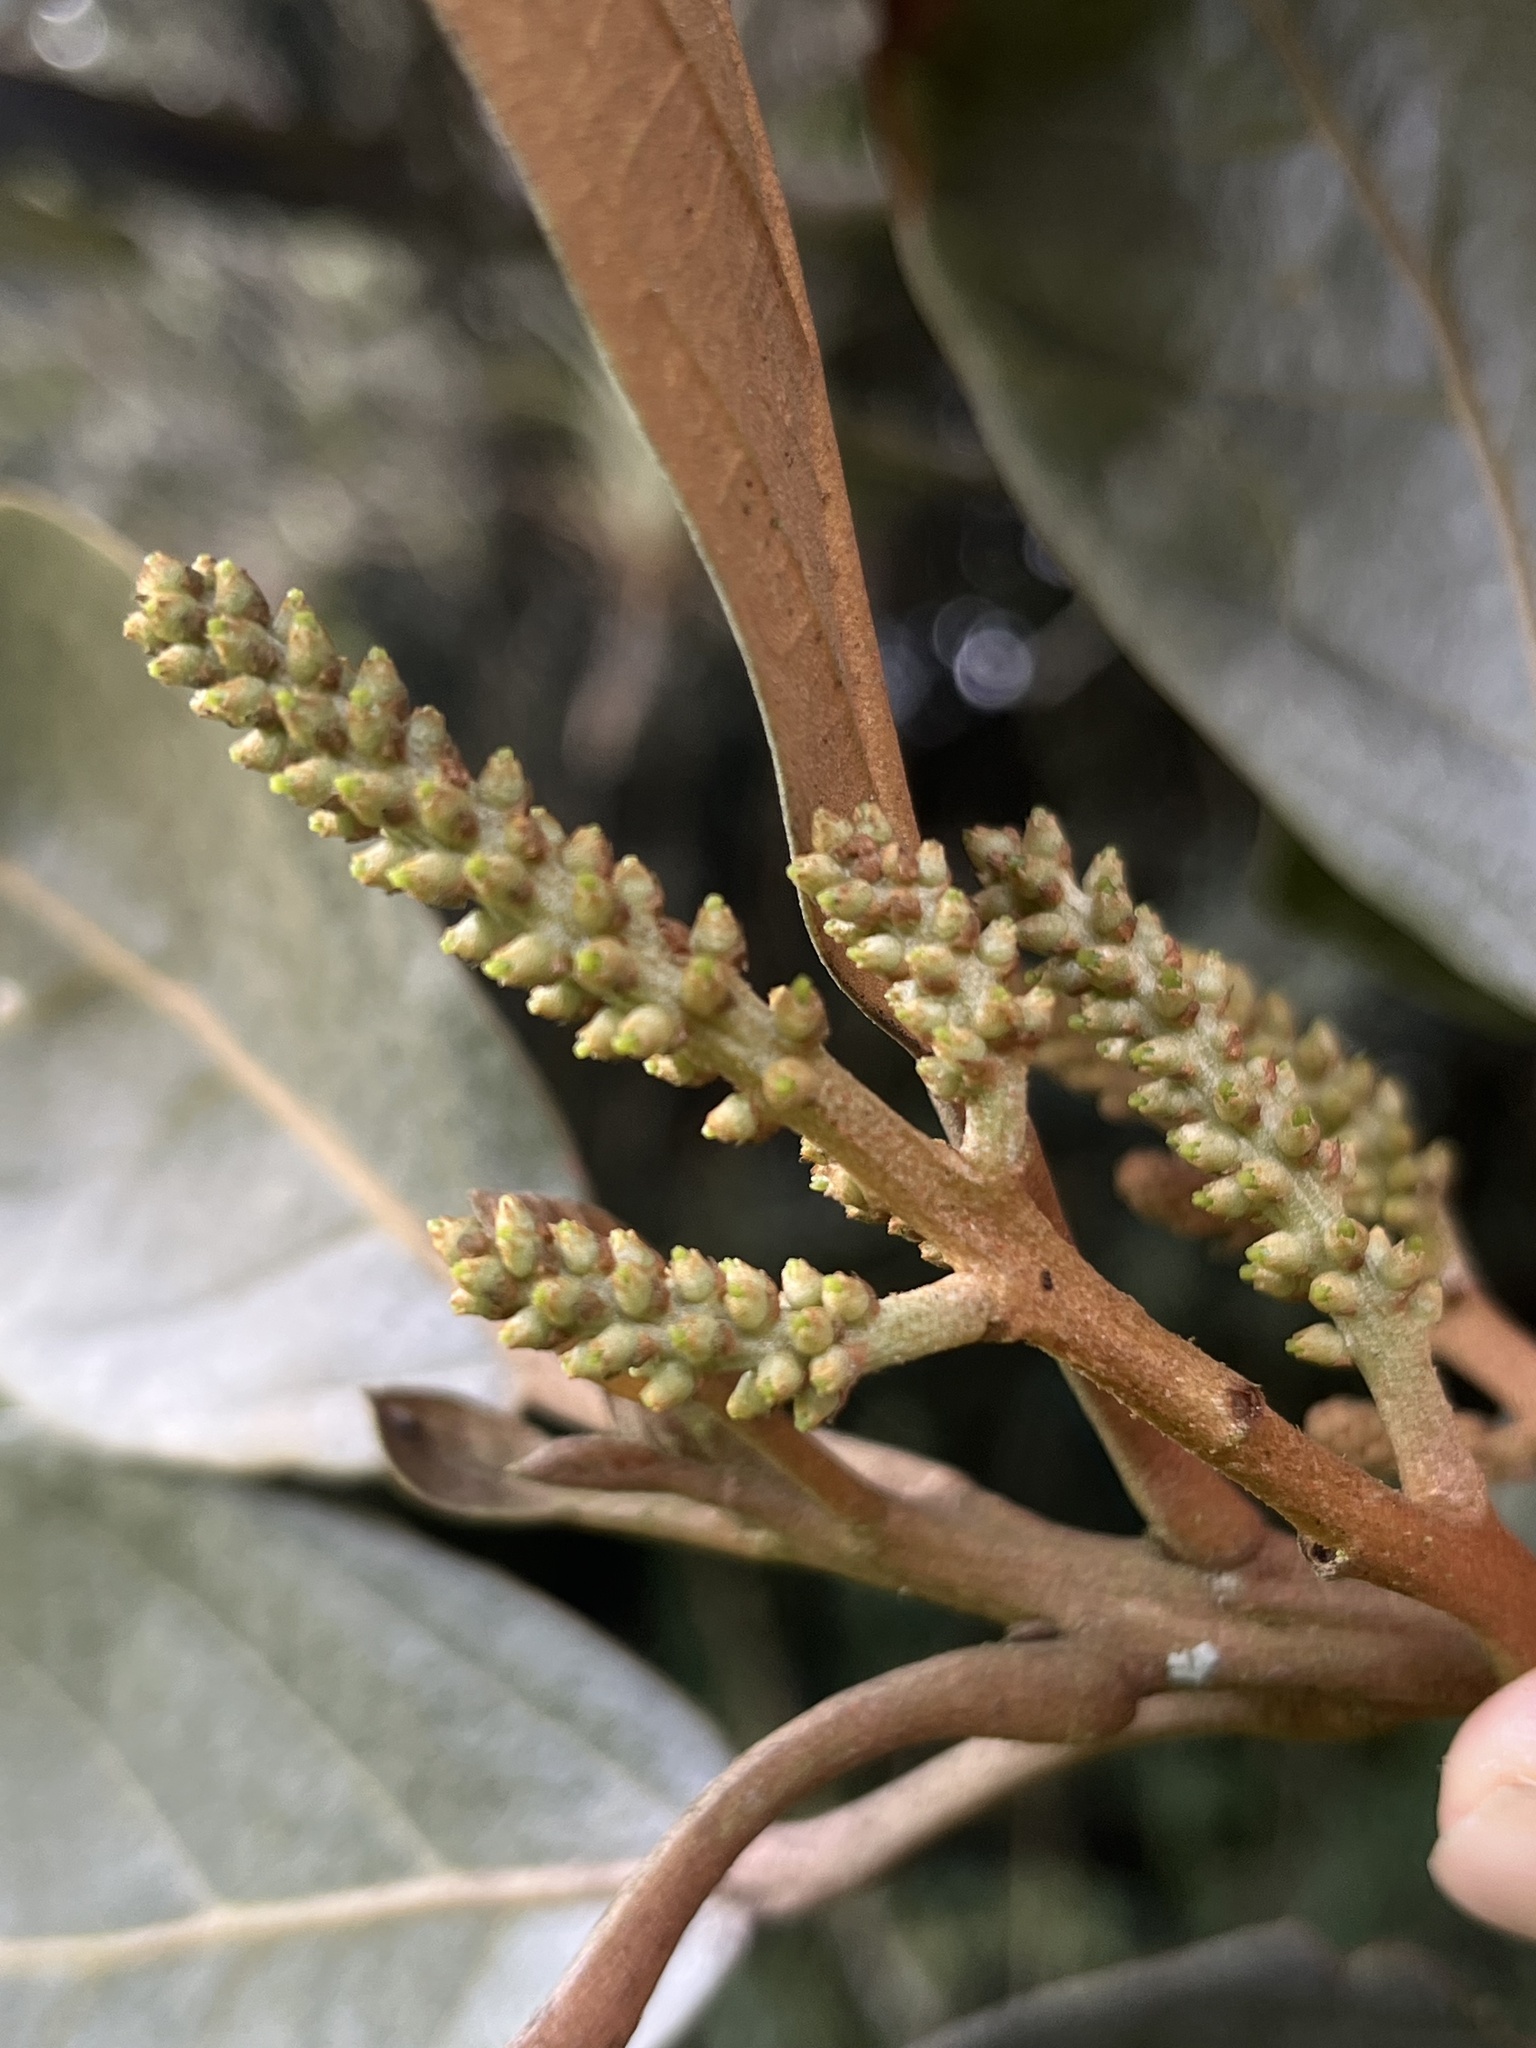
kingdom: Plantae
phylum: Tracheophyta
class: Magnoliopsida
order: Malpighiales
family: Phyllanthaceae
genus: Hieronyma
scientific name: Hieronyma rufa
